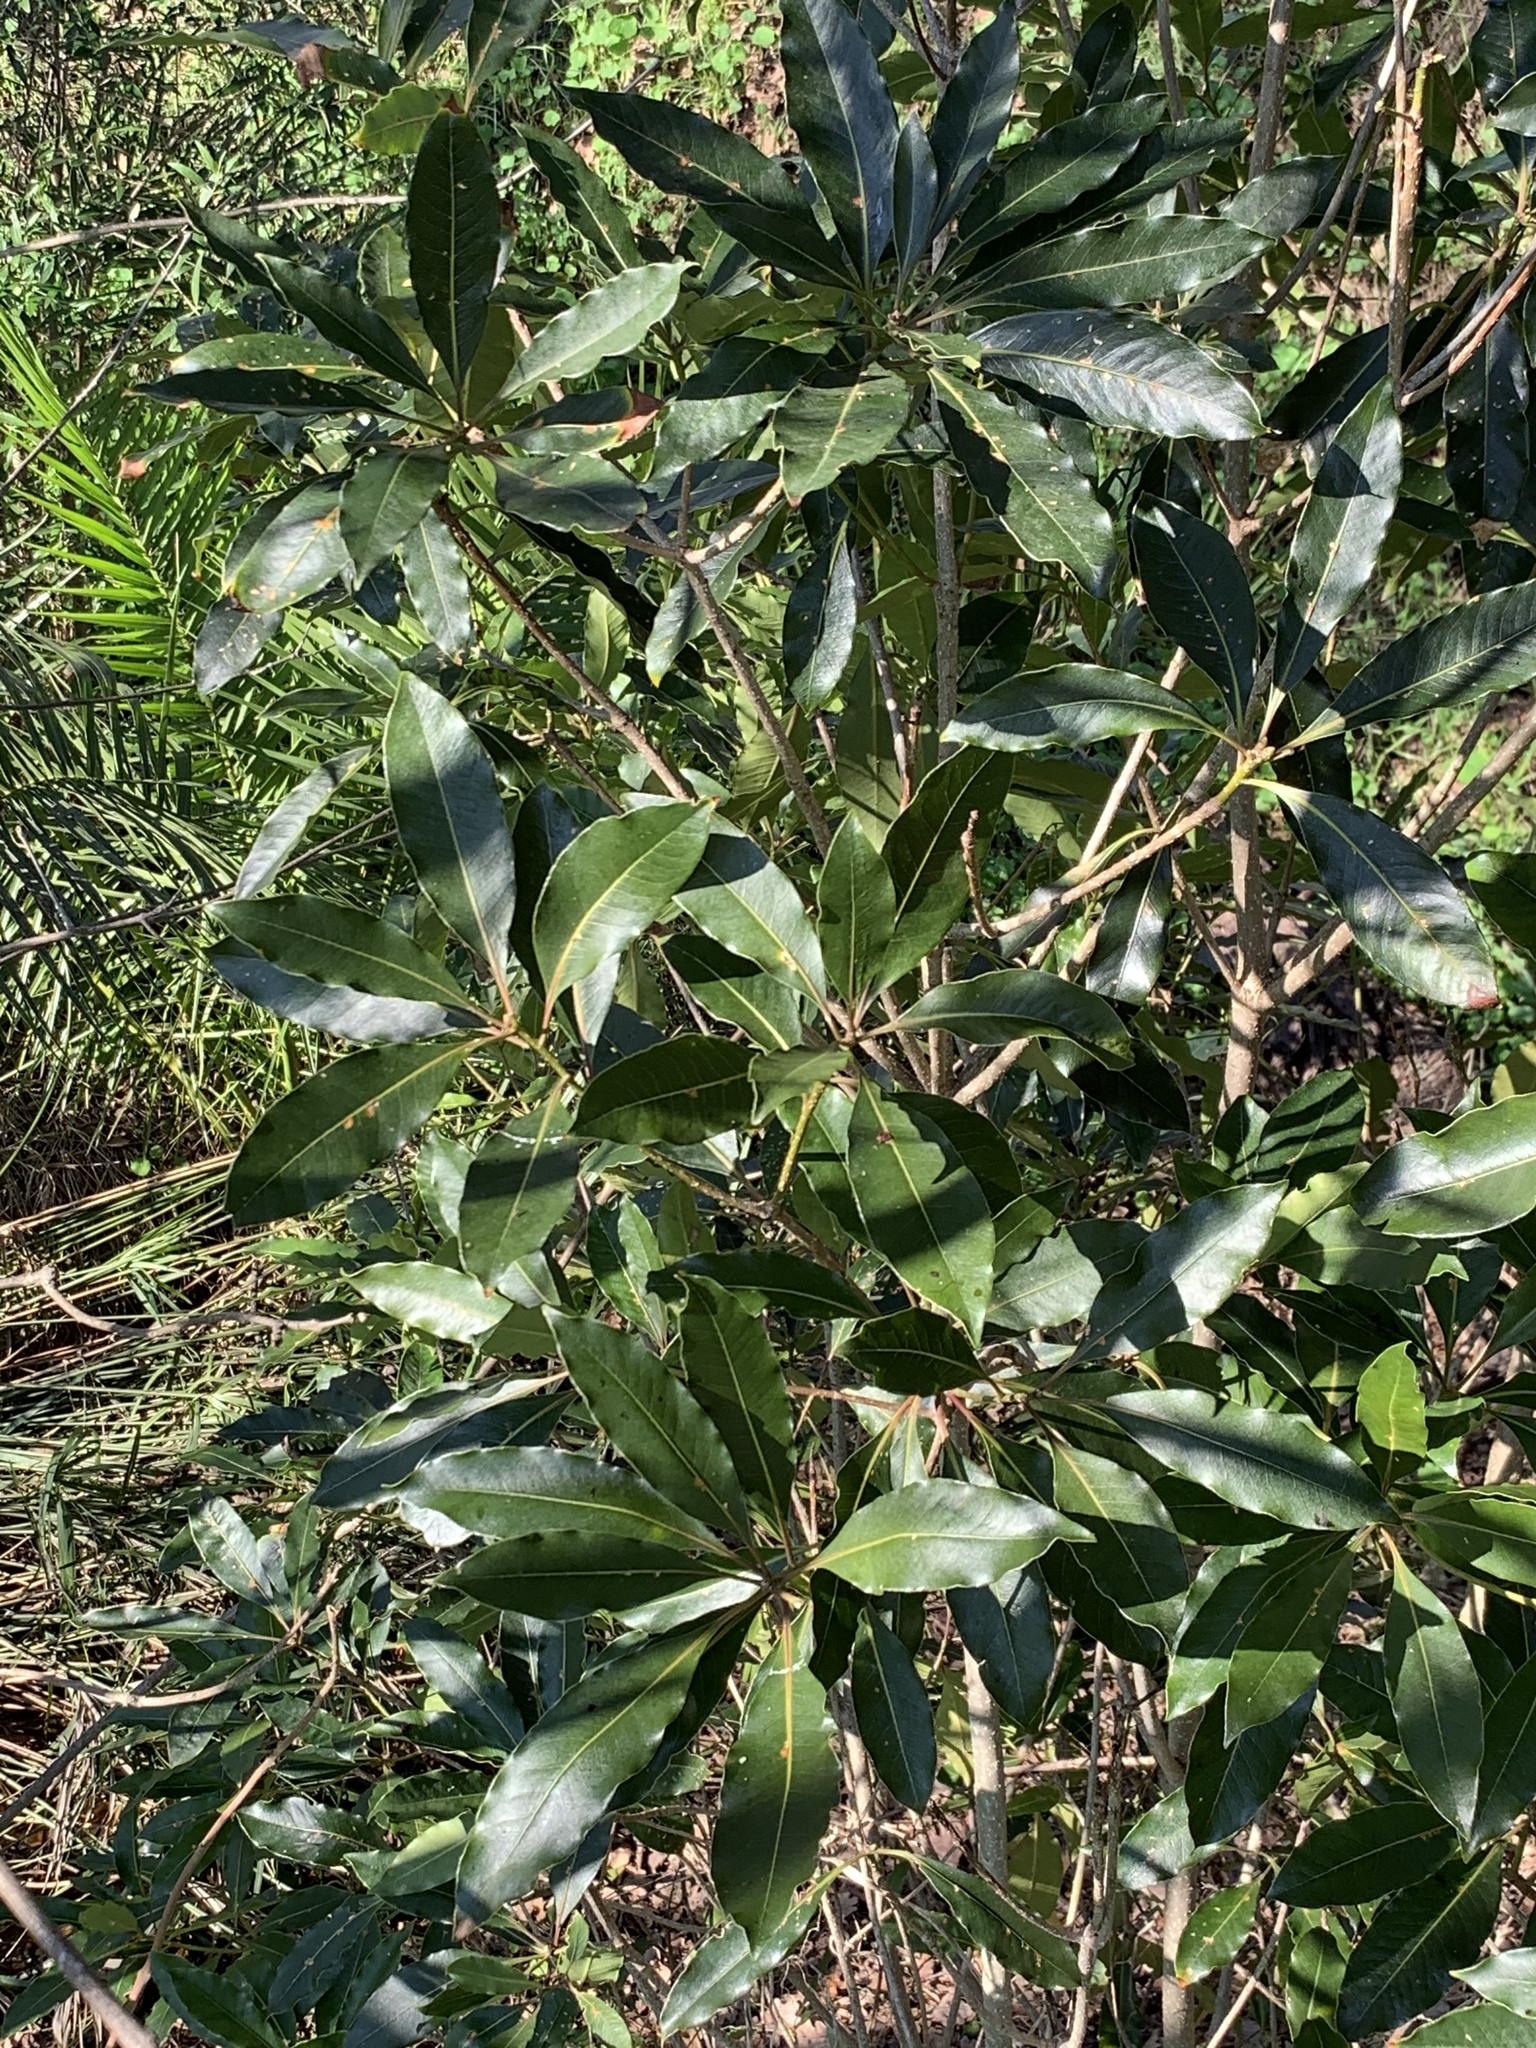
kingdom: Plantae
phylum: Tracheophyta
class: Magnoliopsida
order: Apiales
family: Pittosporaceae
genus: Pittosporum
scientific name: Pittosporum undulatum
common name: Australian cheesewood
